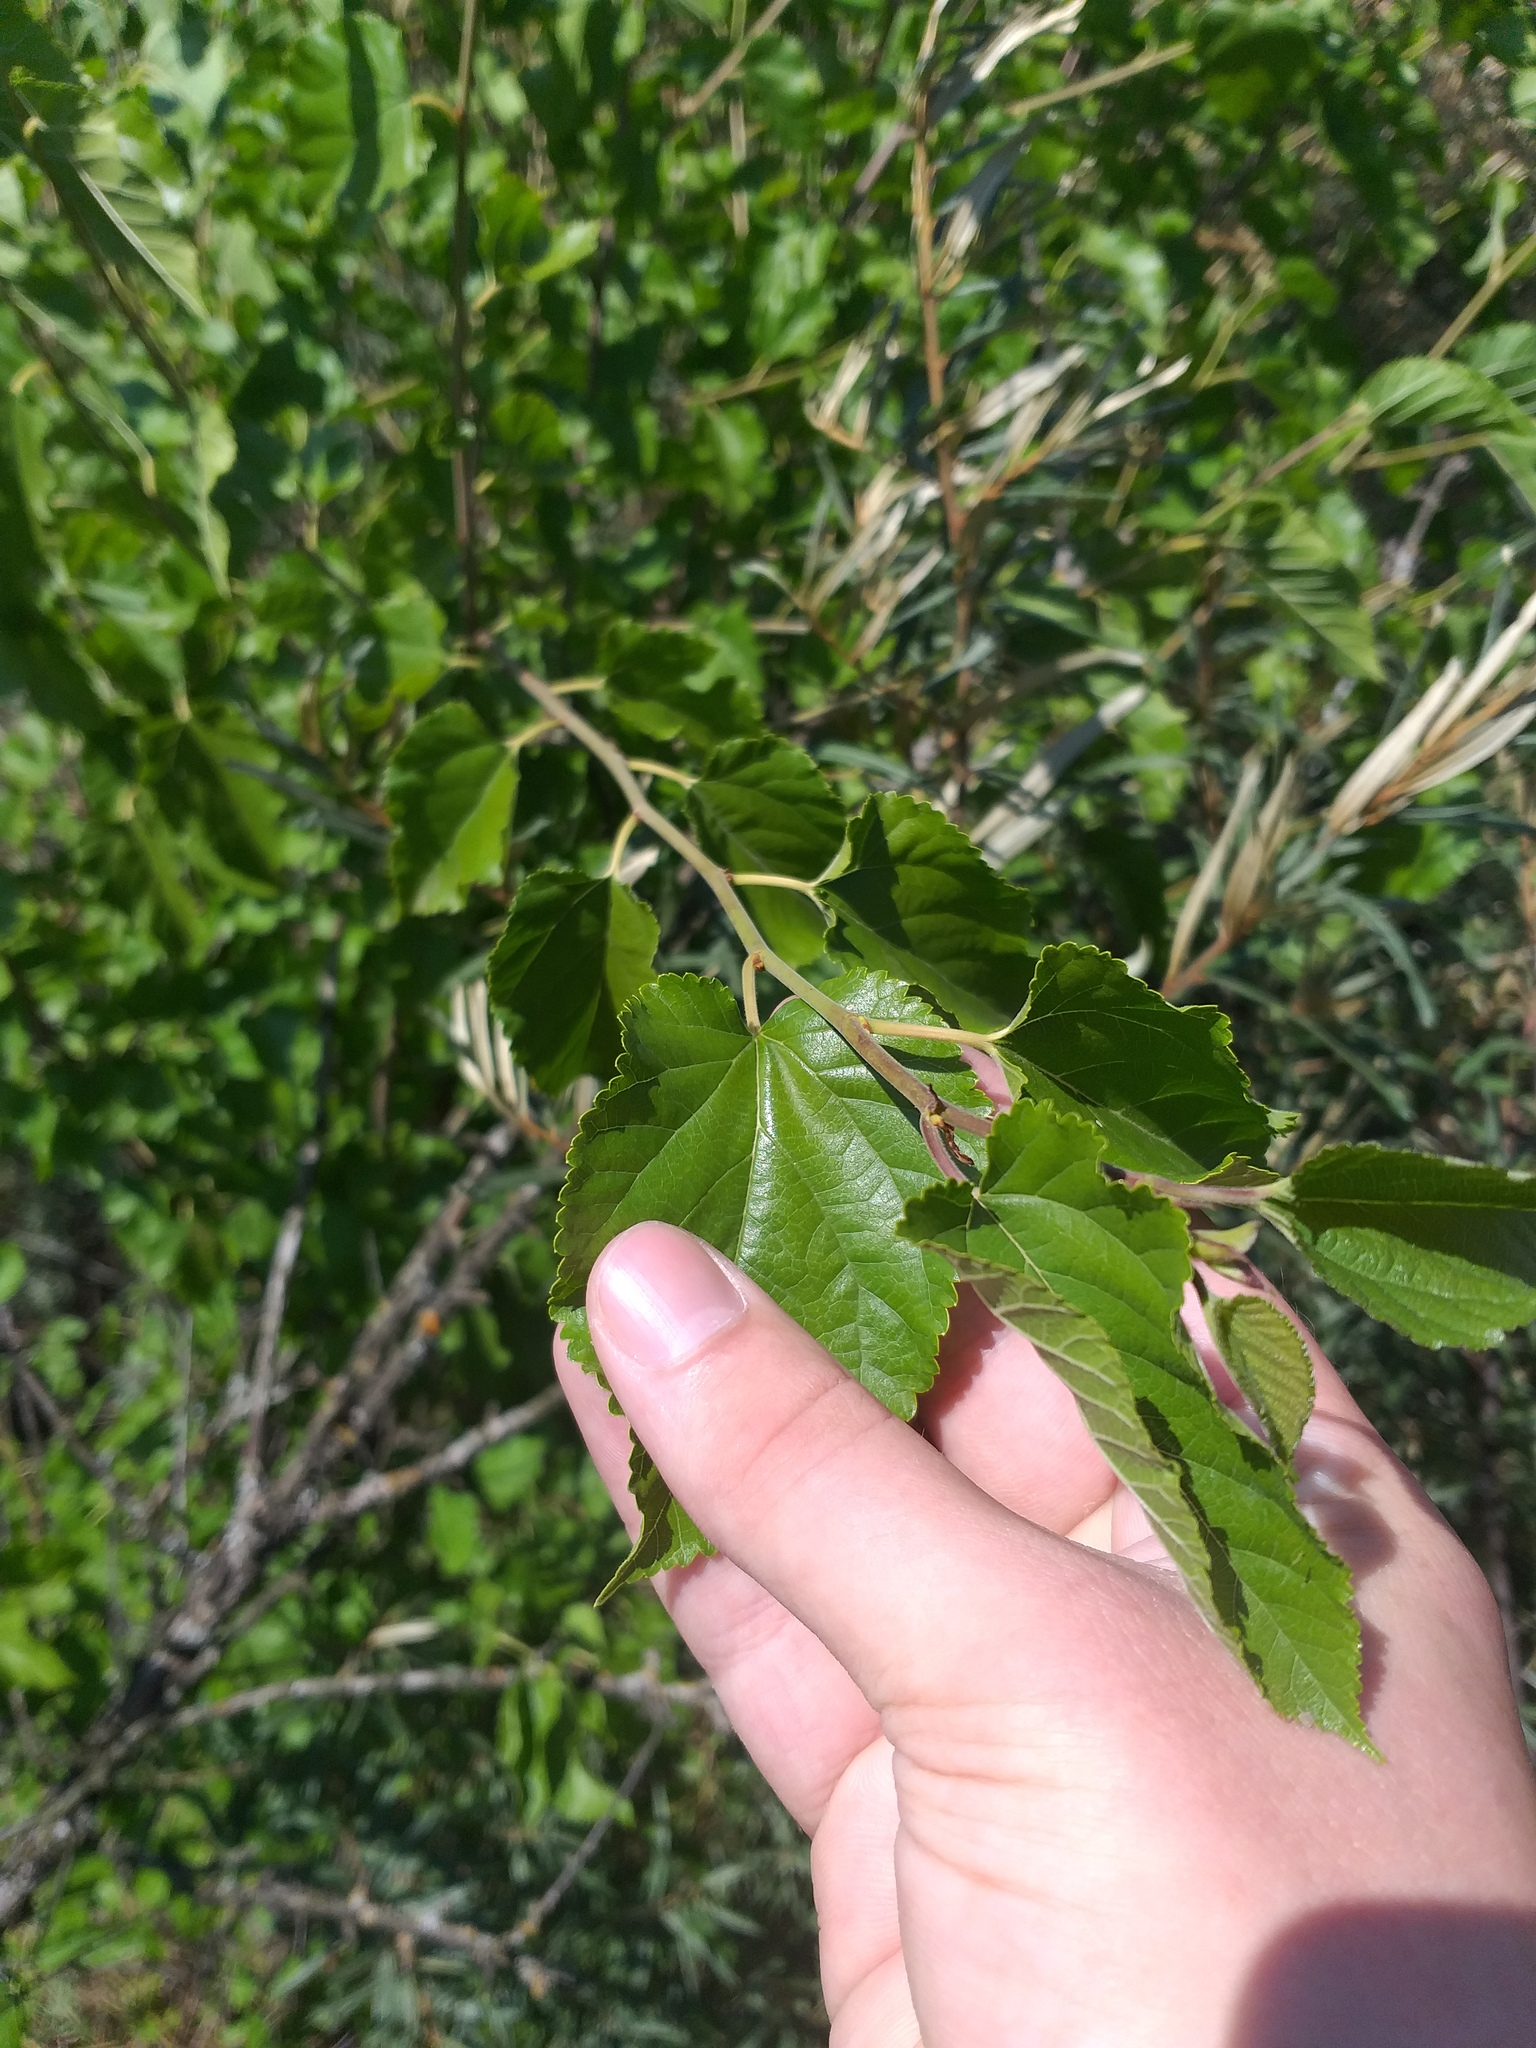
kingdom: Plantae
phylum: Tracheophyta
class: Magnoliopsida
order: Rosales
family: Moraceae
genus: Morus
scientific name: Morus alba
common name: White mulberry
